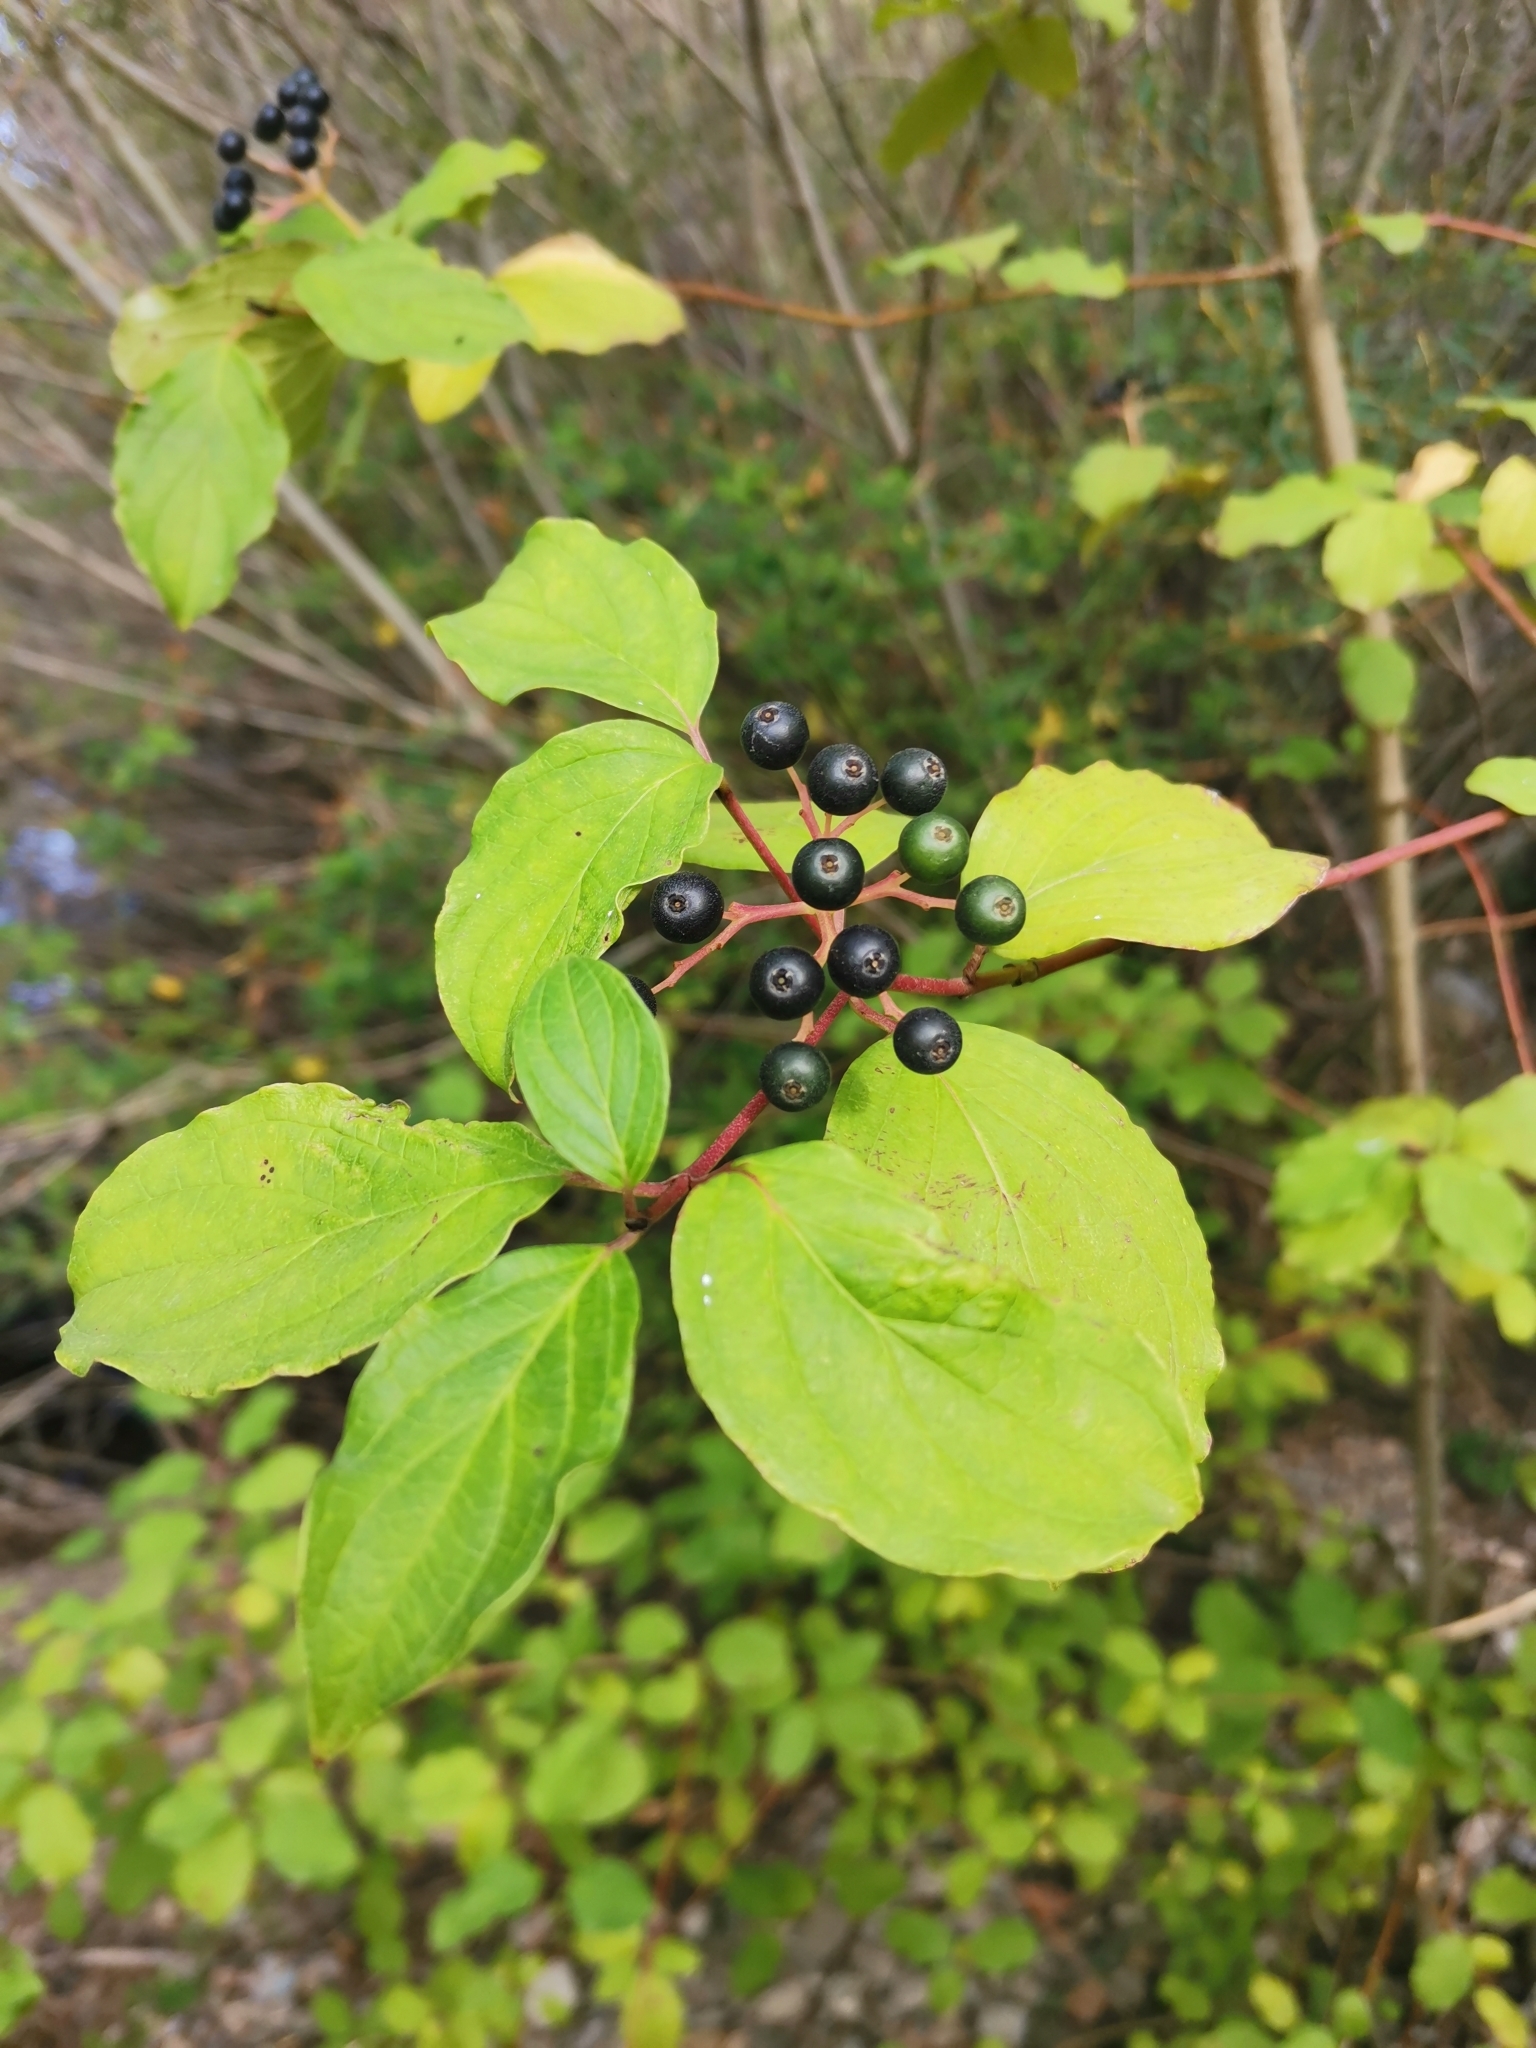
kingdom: Plantae
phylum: Tracheophyta
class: Magnoliopsida
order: Cornales
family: Cornaceae
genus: Cornus
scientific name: Cornus sanguinea
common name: Dogwood
